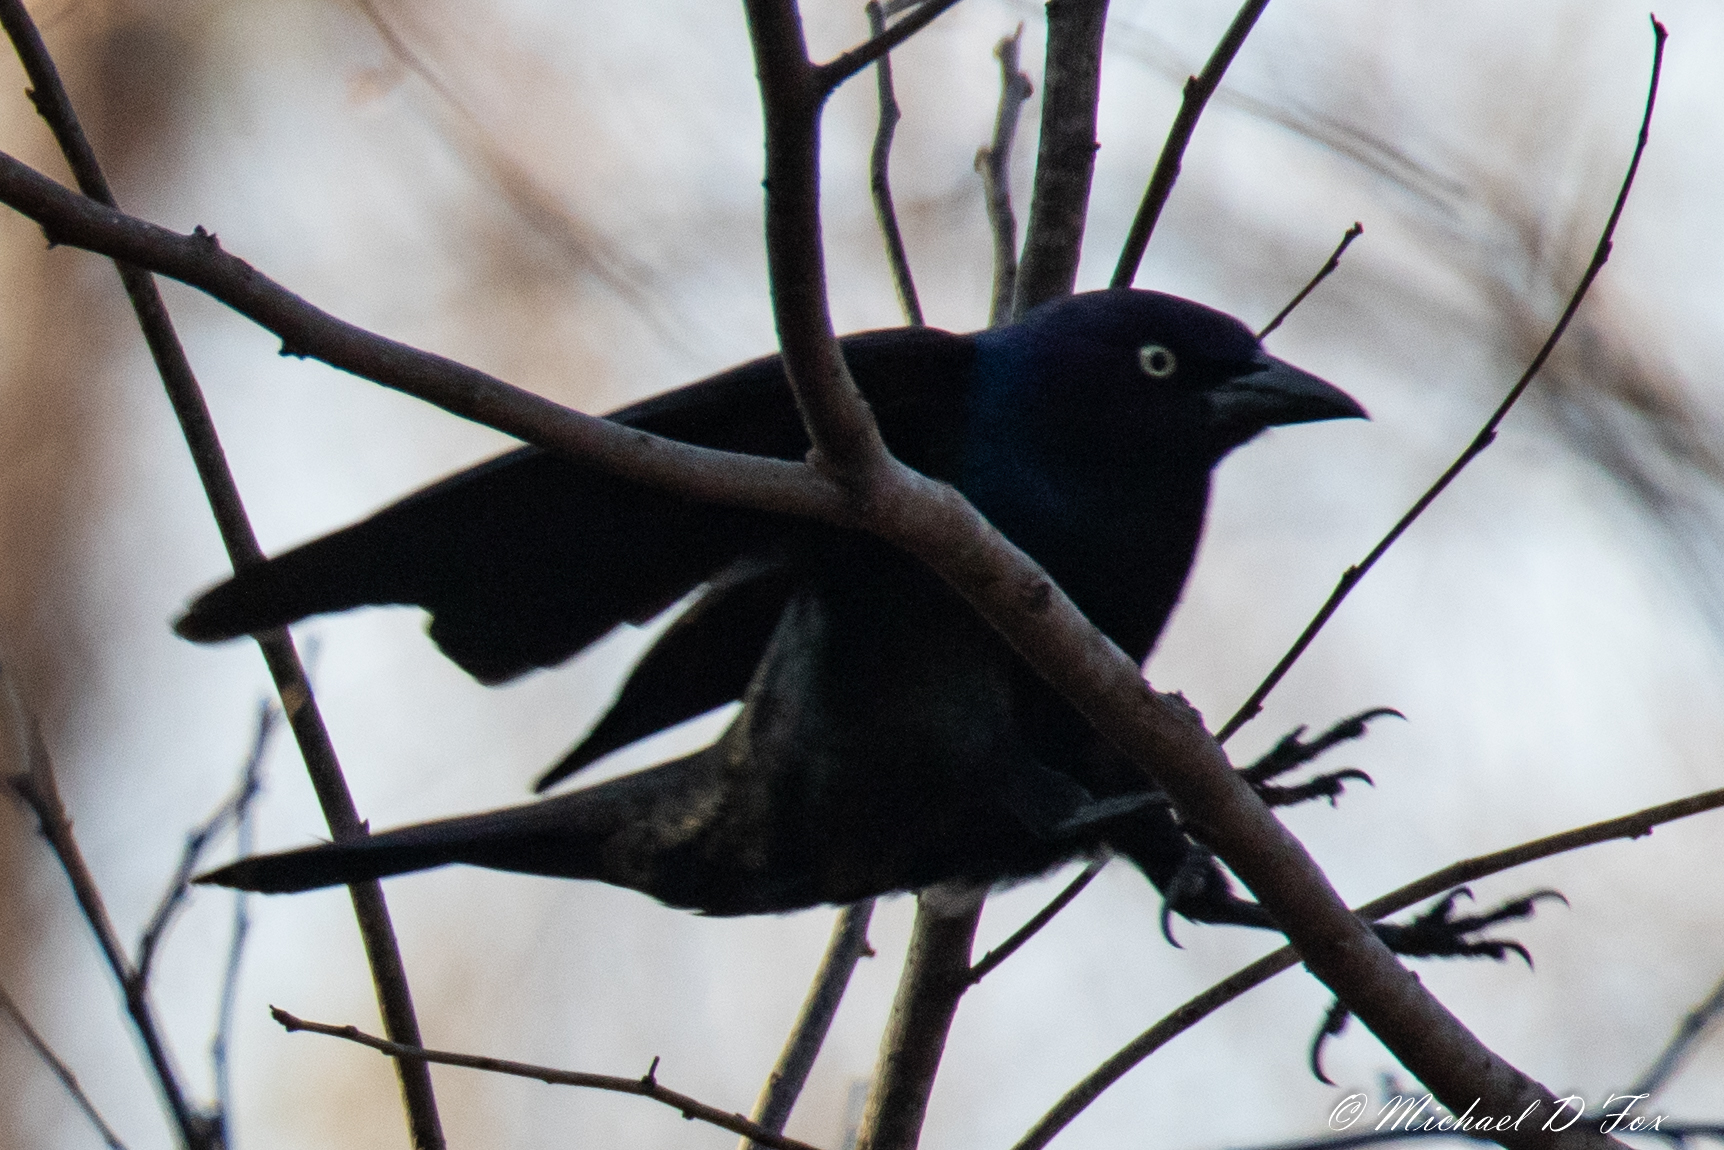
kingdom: Animalia
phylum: Chordata
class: Aves
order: Passeriformes
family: Icteridae
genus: Quiscalus
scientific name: Quiscalus quiscula
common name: Common grackle
